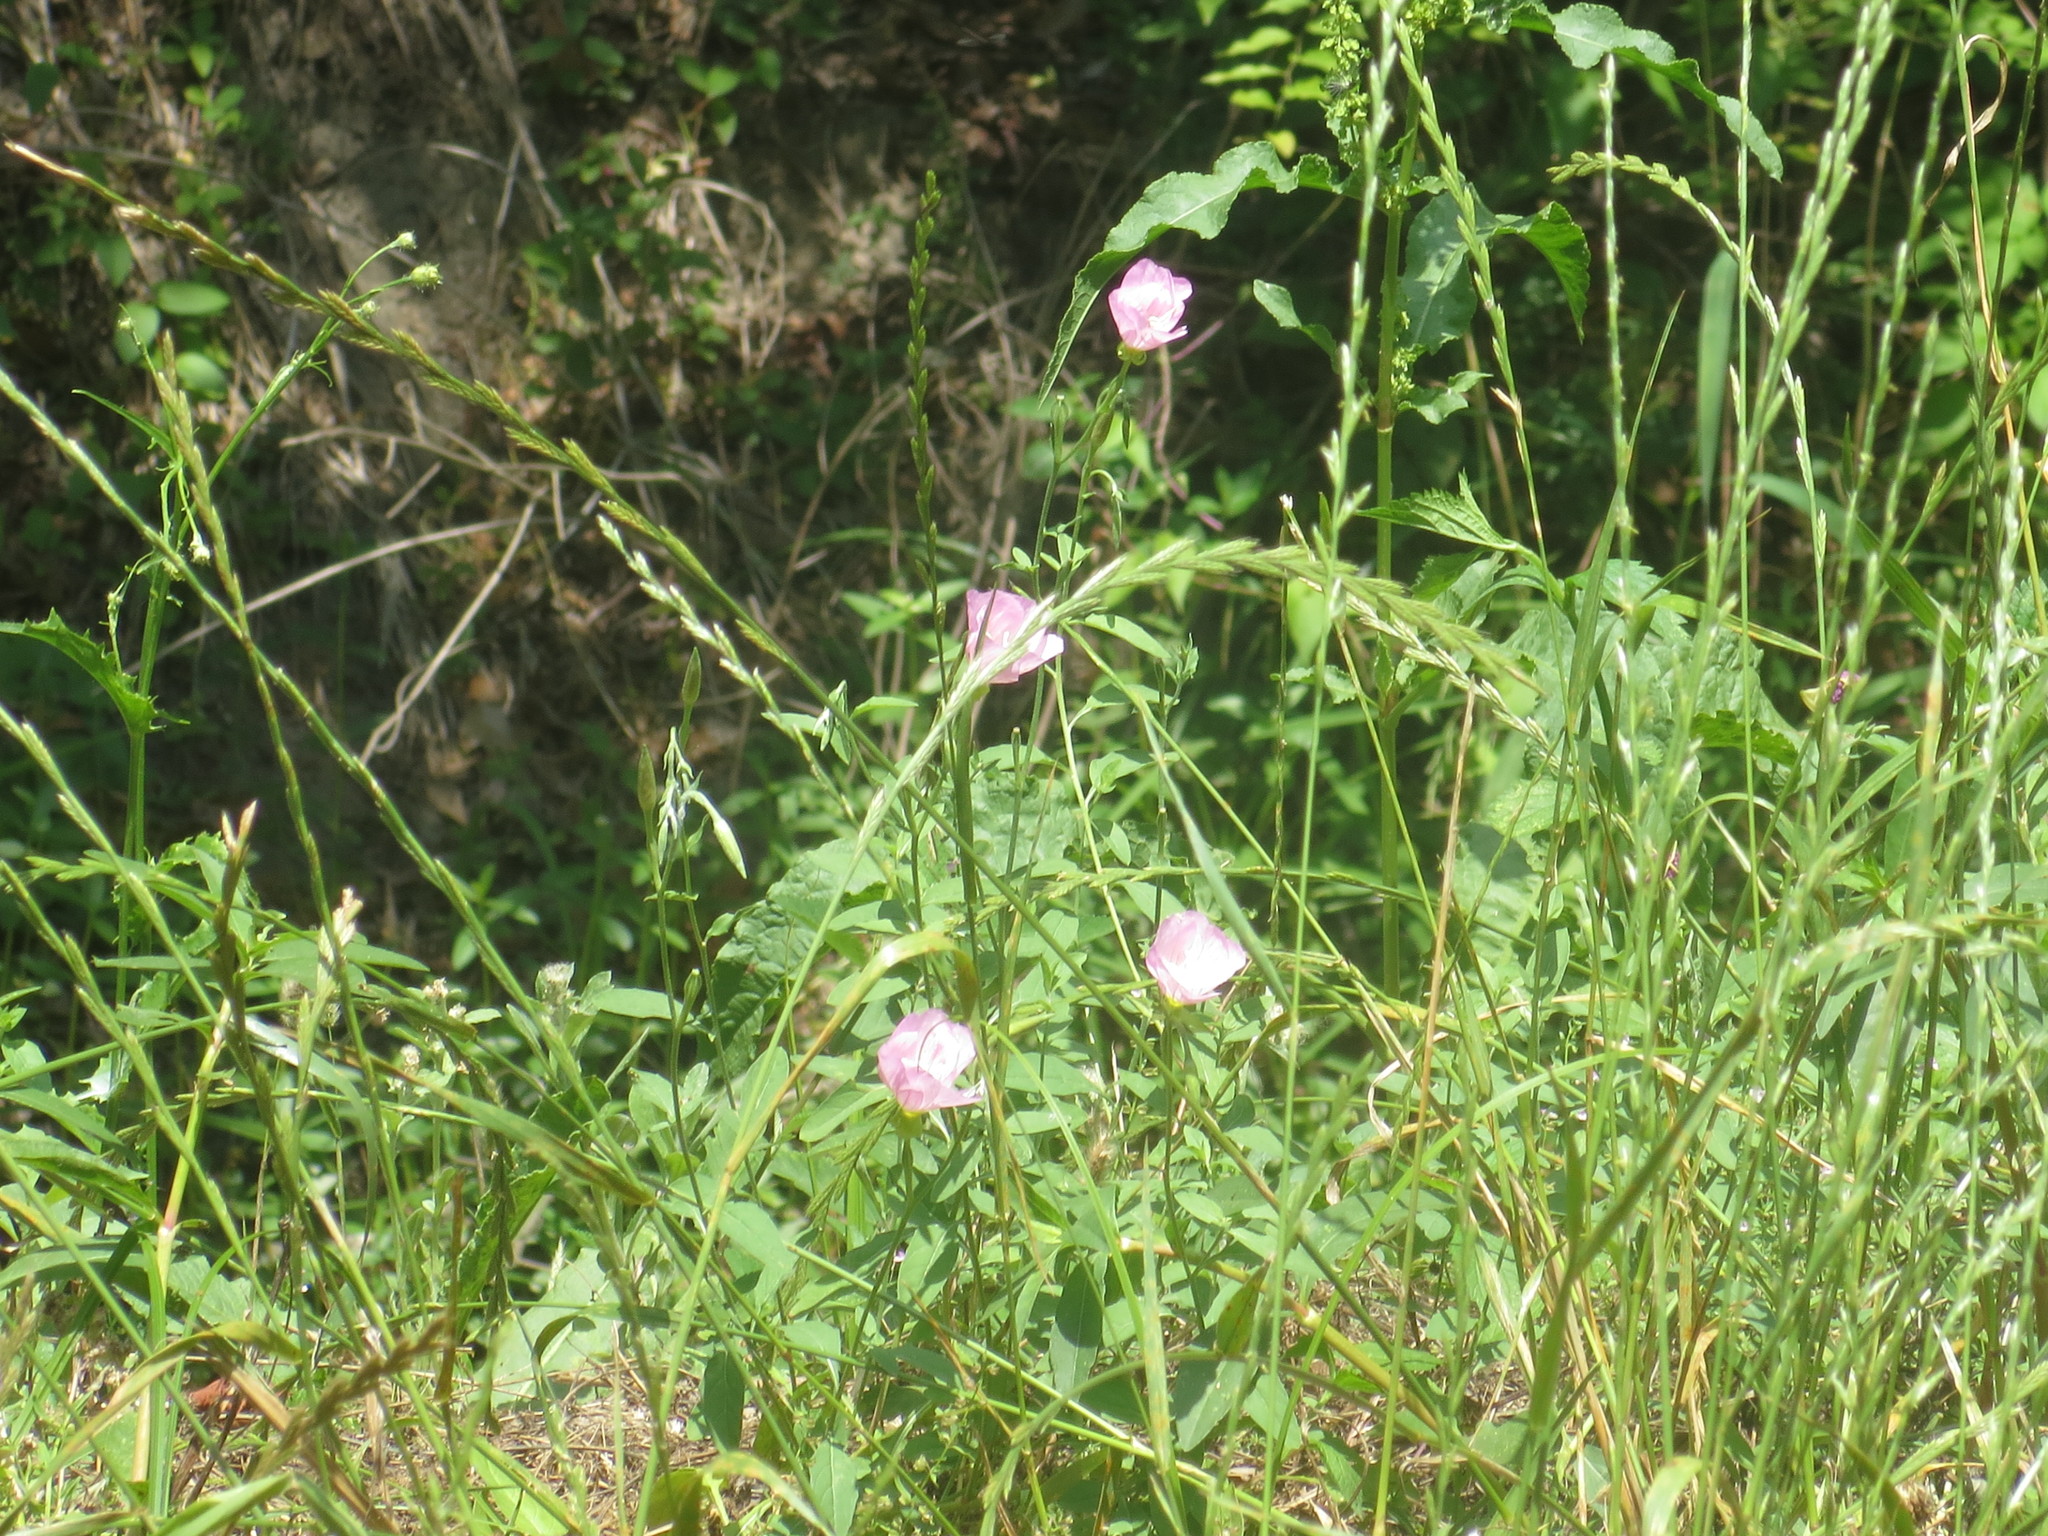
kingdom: Plantae
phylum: Tracheophyta
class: Magnoliopsida
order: Myrtales
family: Onagraceae
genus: Oenothera
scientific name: Oenothera speciosa
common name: White evening-primrose
